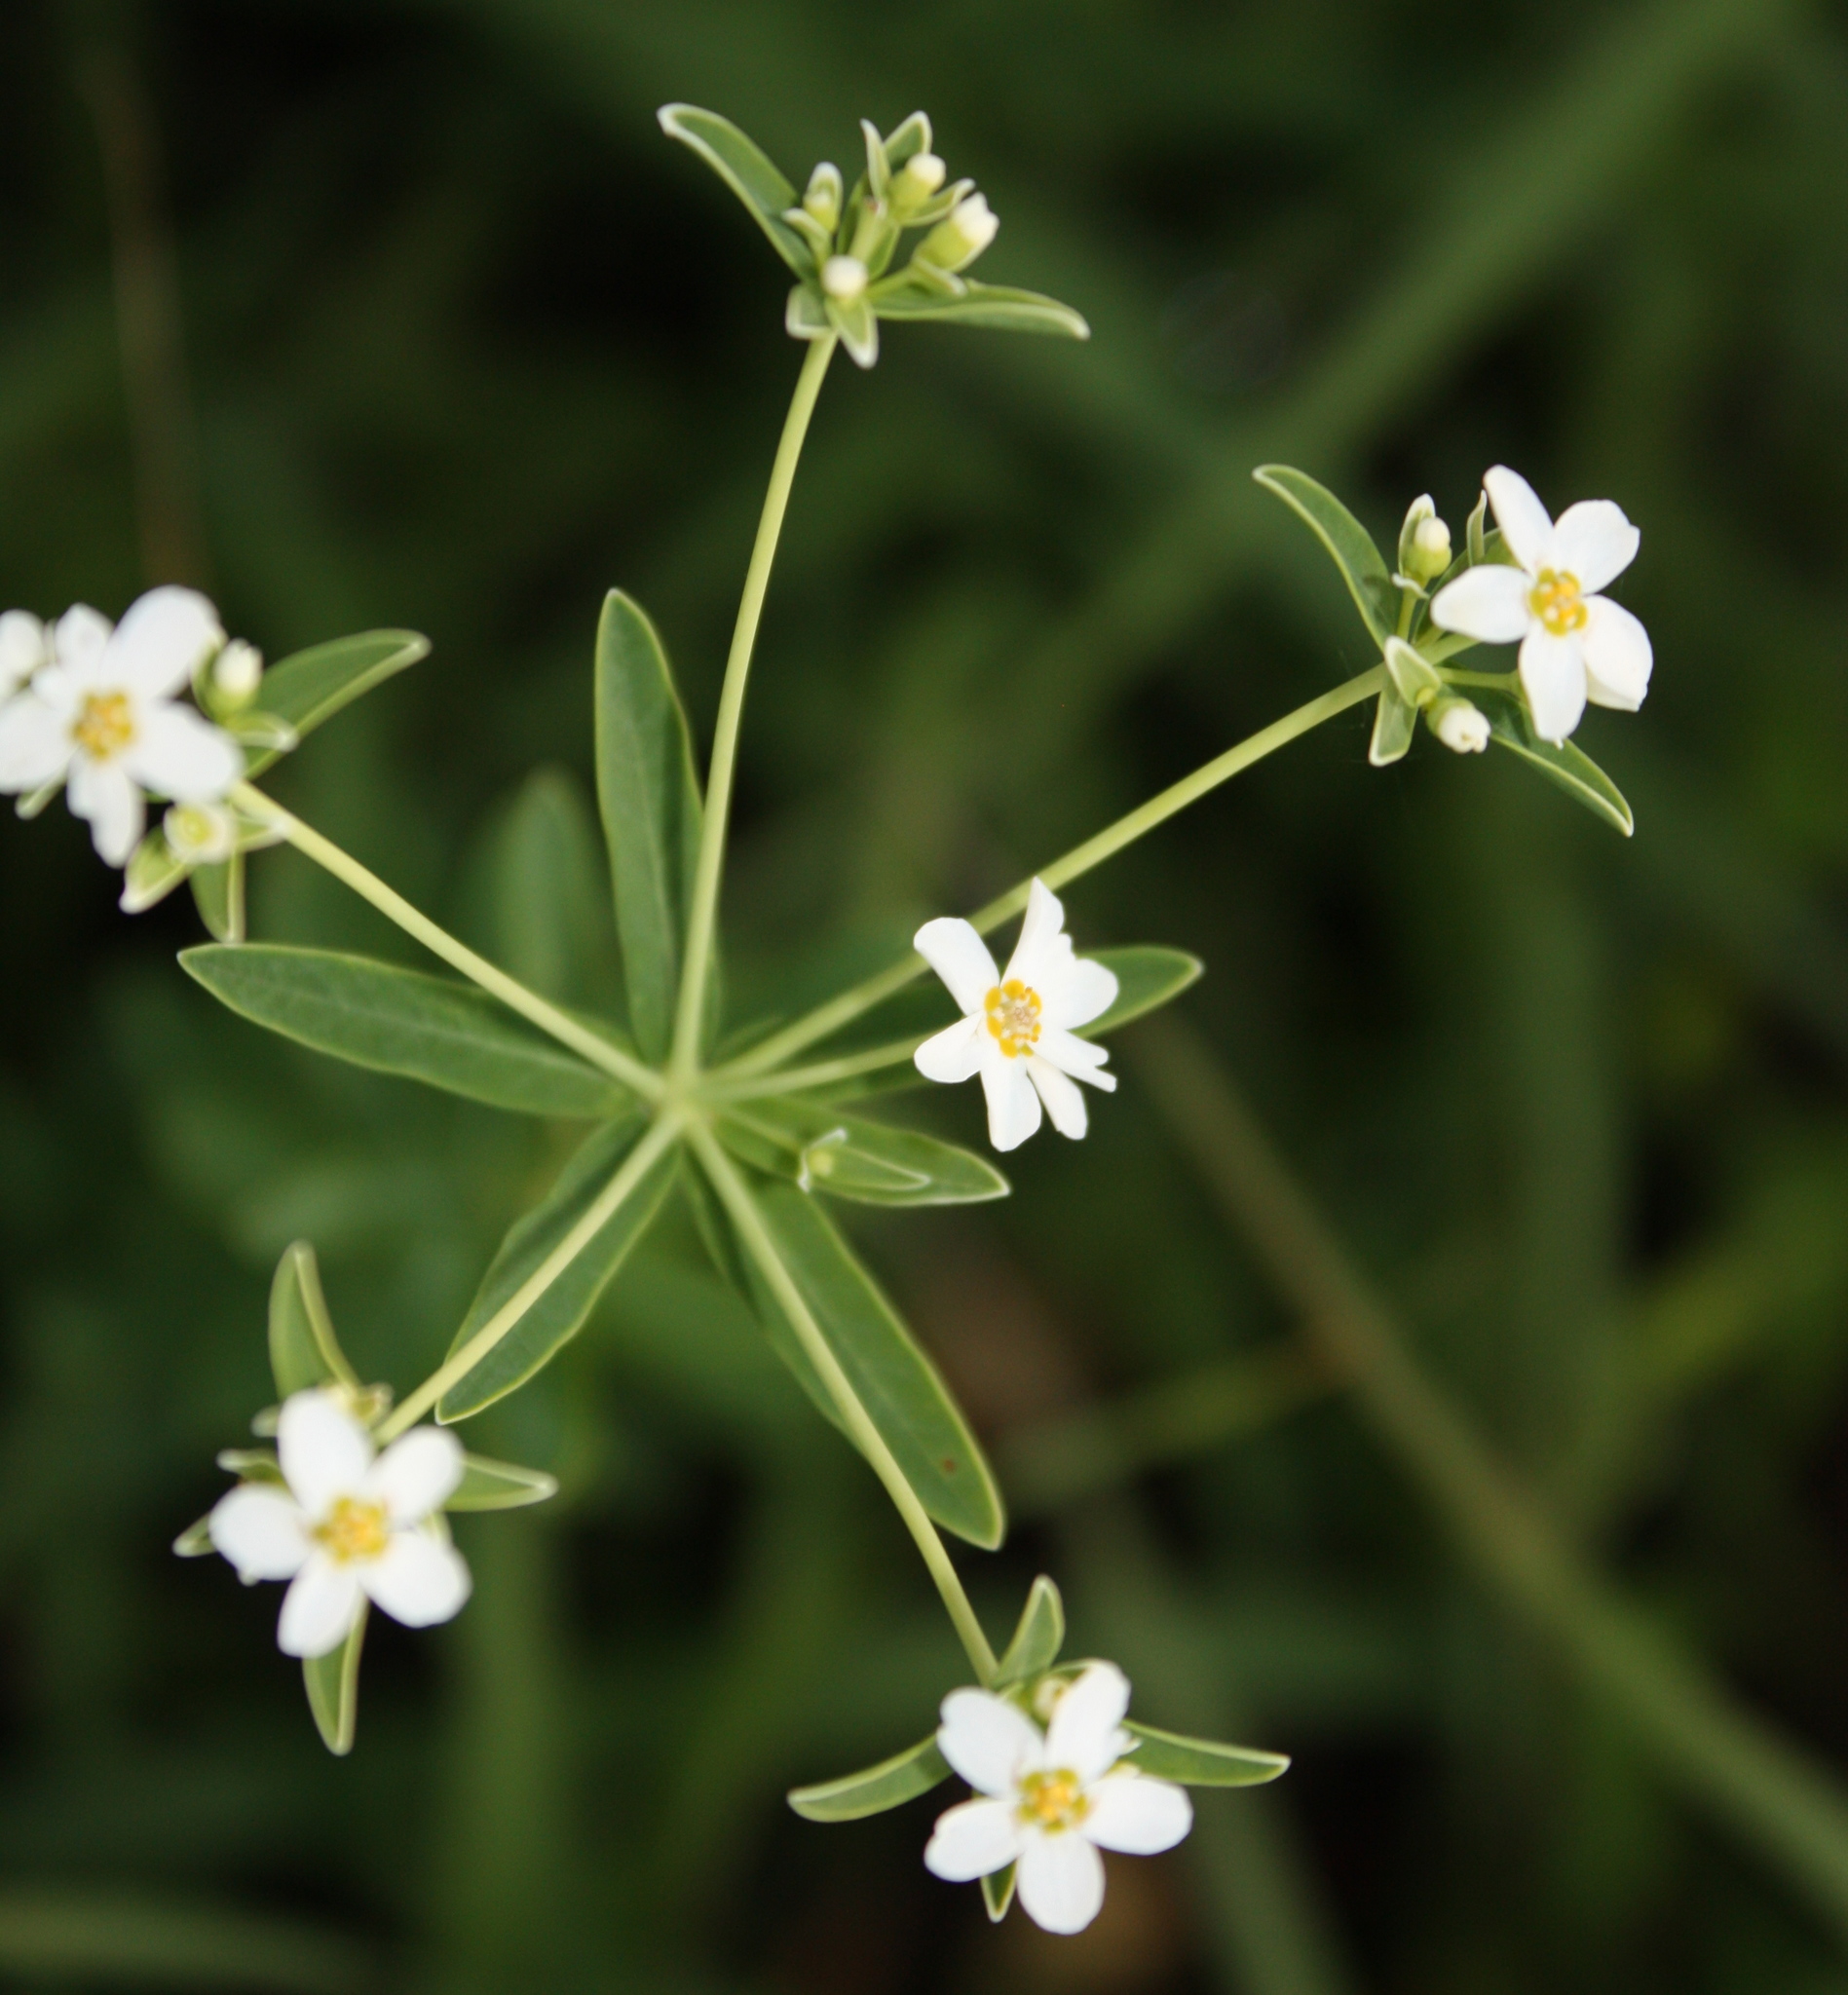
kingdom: Plantae
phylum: Tracheophyta
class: Magnoliopsida
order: Malpighiales
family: Euphorbiaceae
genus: Euphorbia
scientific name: Euphorbia corollata
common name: Flowering spurge
